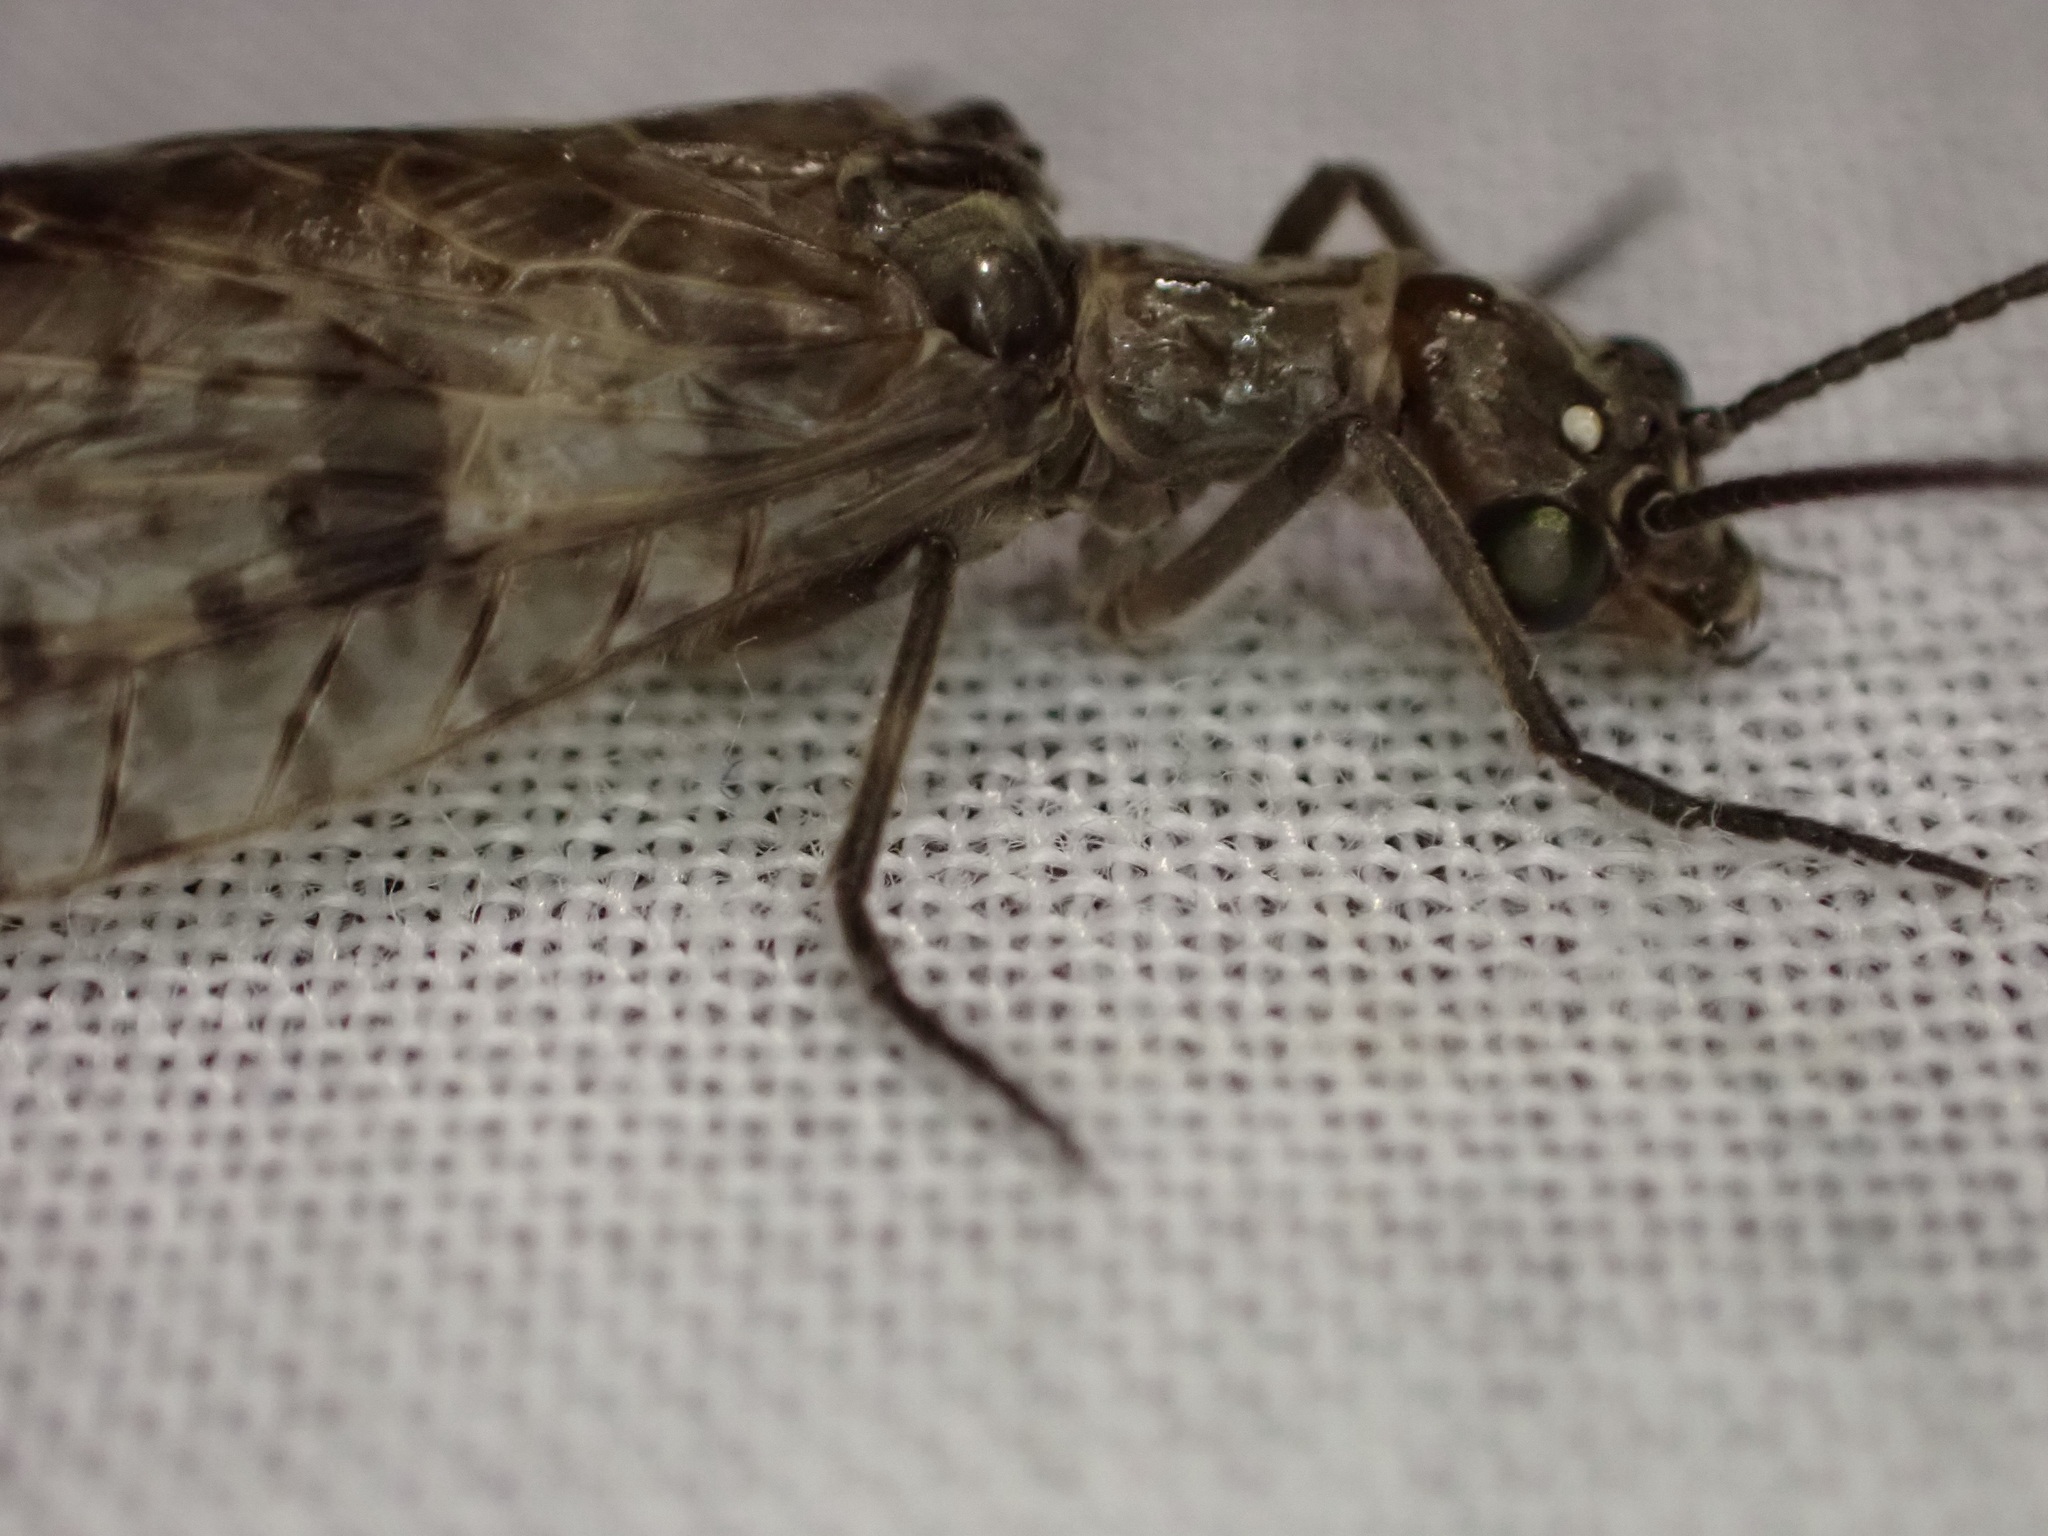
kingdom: Animalia
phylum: Arthropoda
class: Insecta
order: Megaloptera
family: Corydalidae
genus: Archichauliodes
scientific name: Archichauliodes diversus
